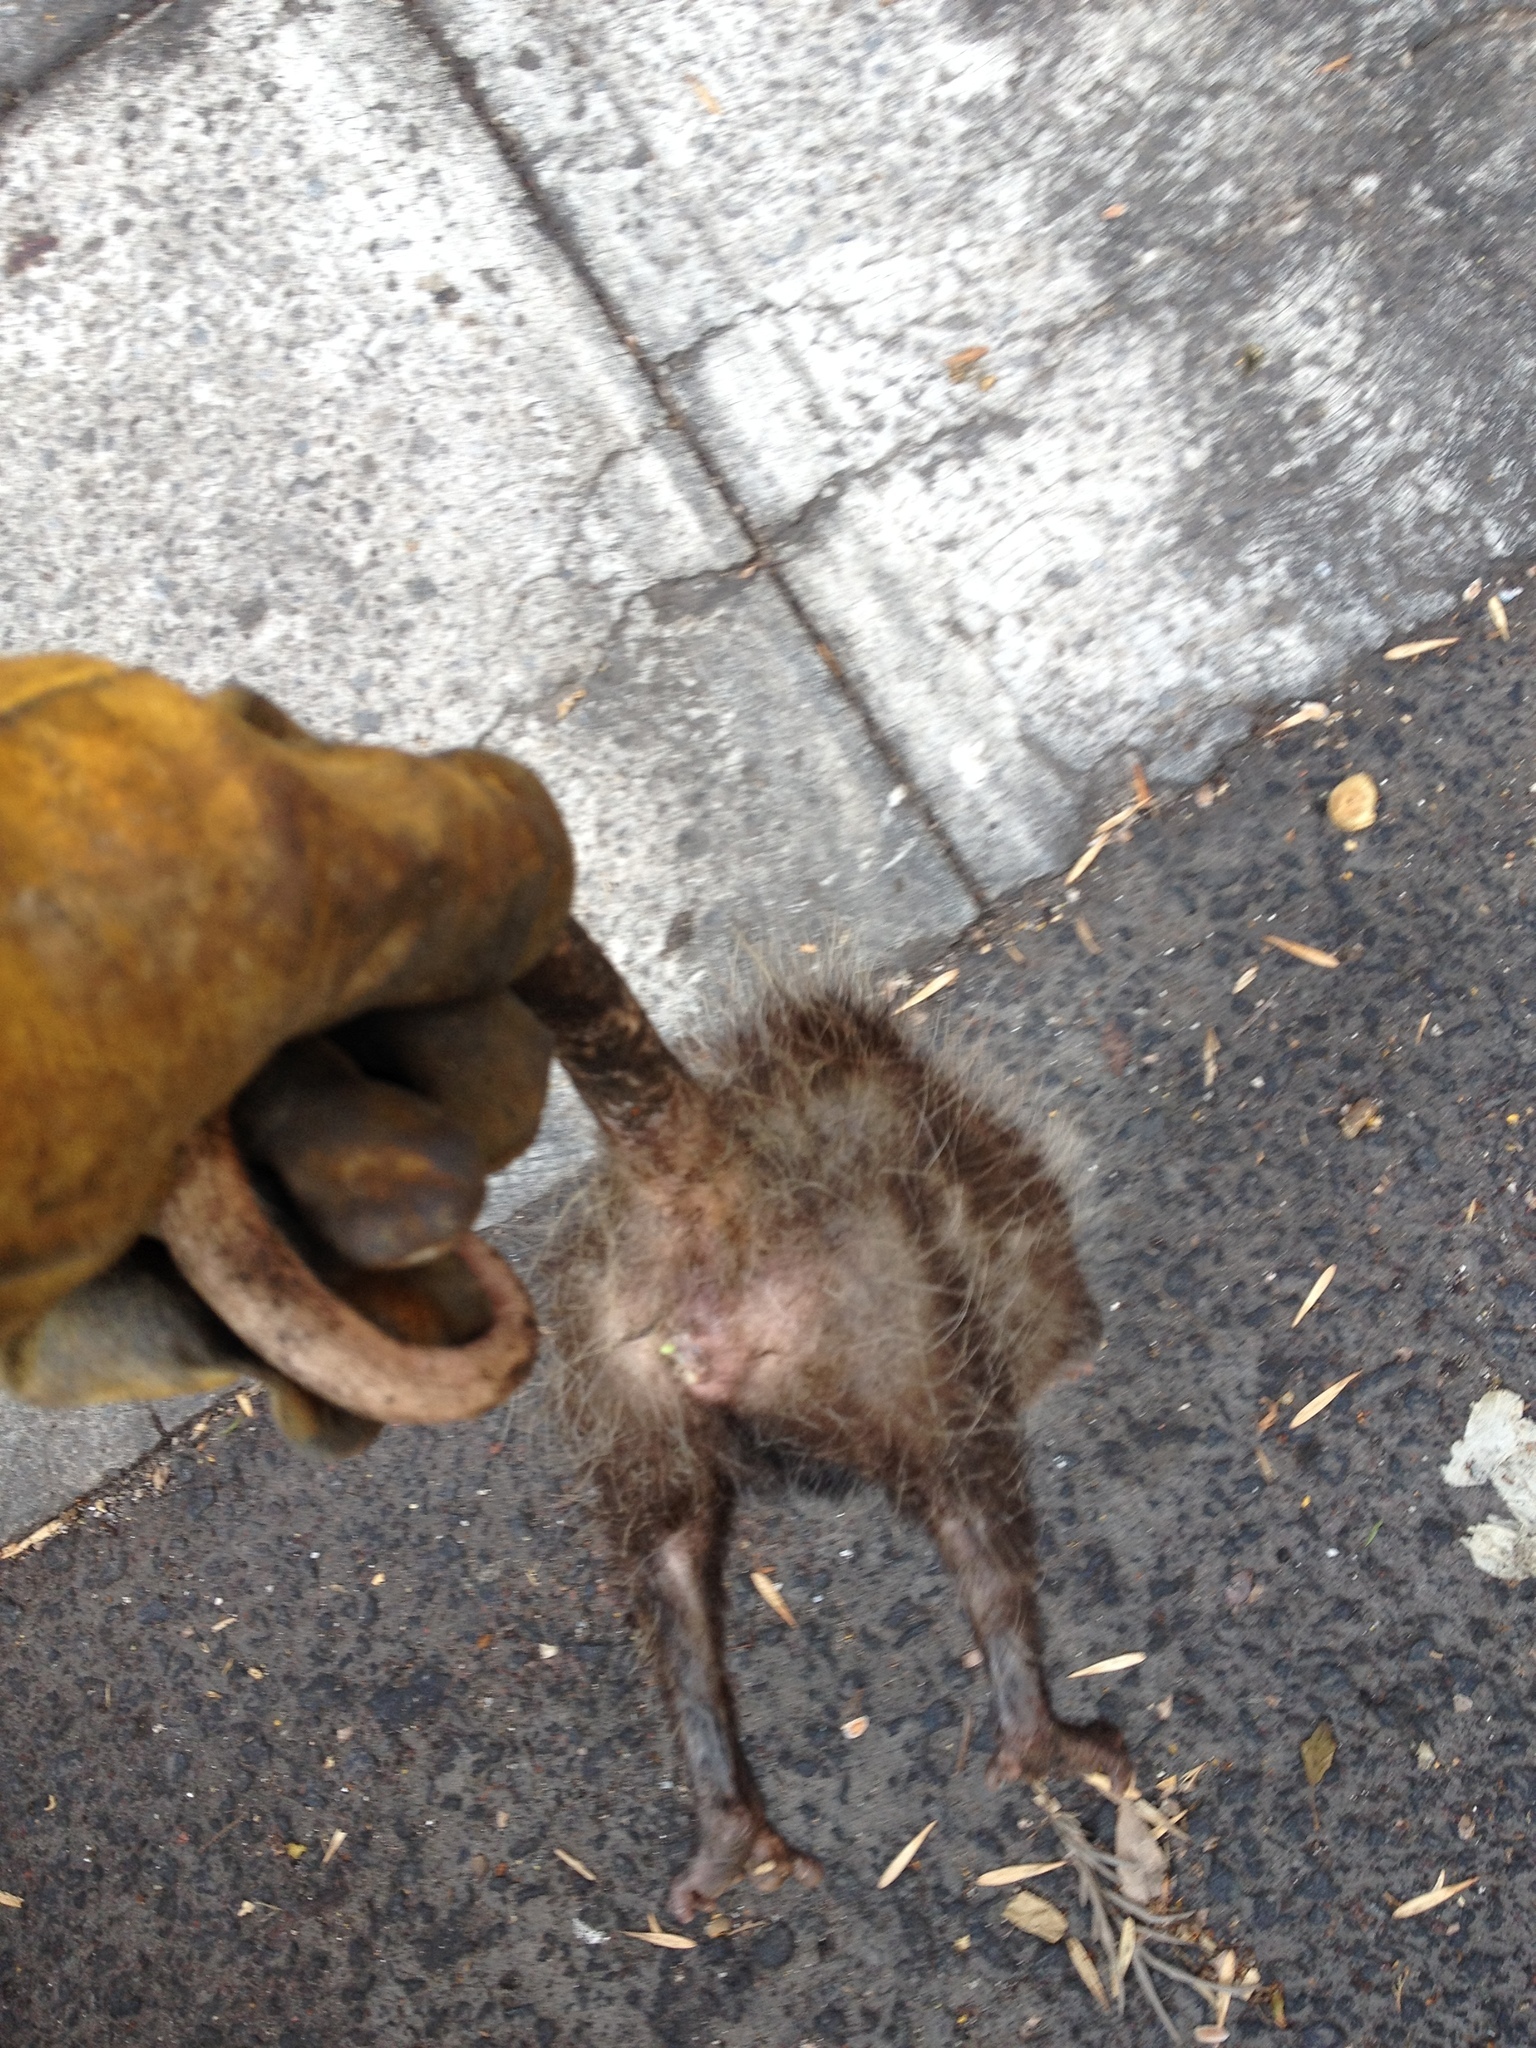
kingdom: Animalia
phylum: Chordata
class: Mammalia
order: Didelphimorphia
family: Didelphidae
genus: Didelphis
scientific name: Didelphis virginiana
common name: Virginia opossum
